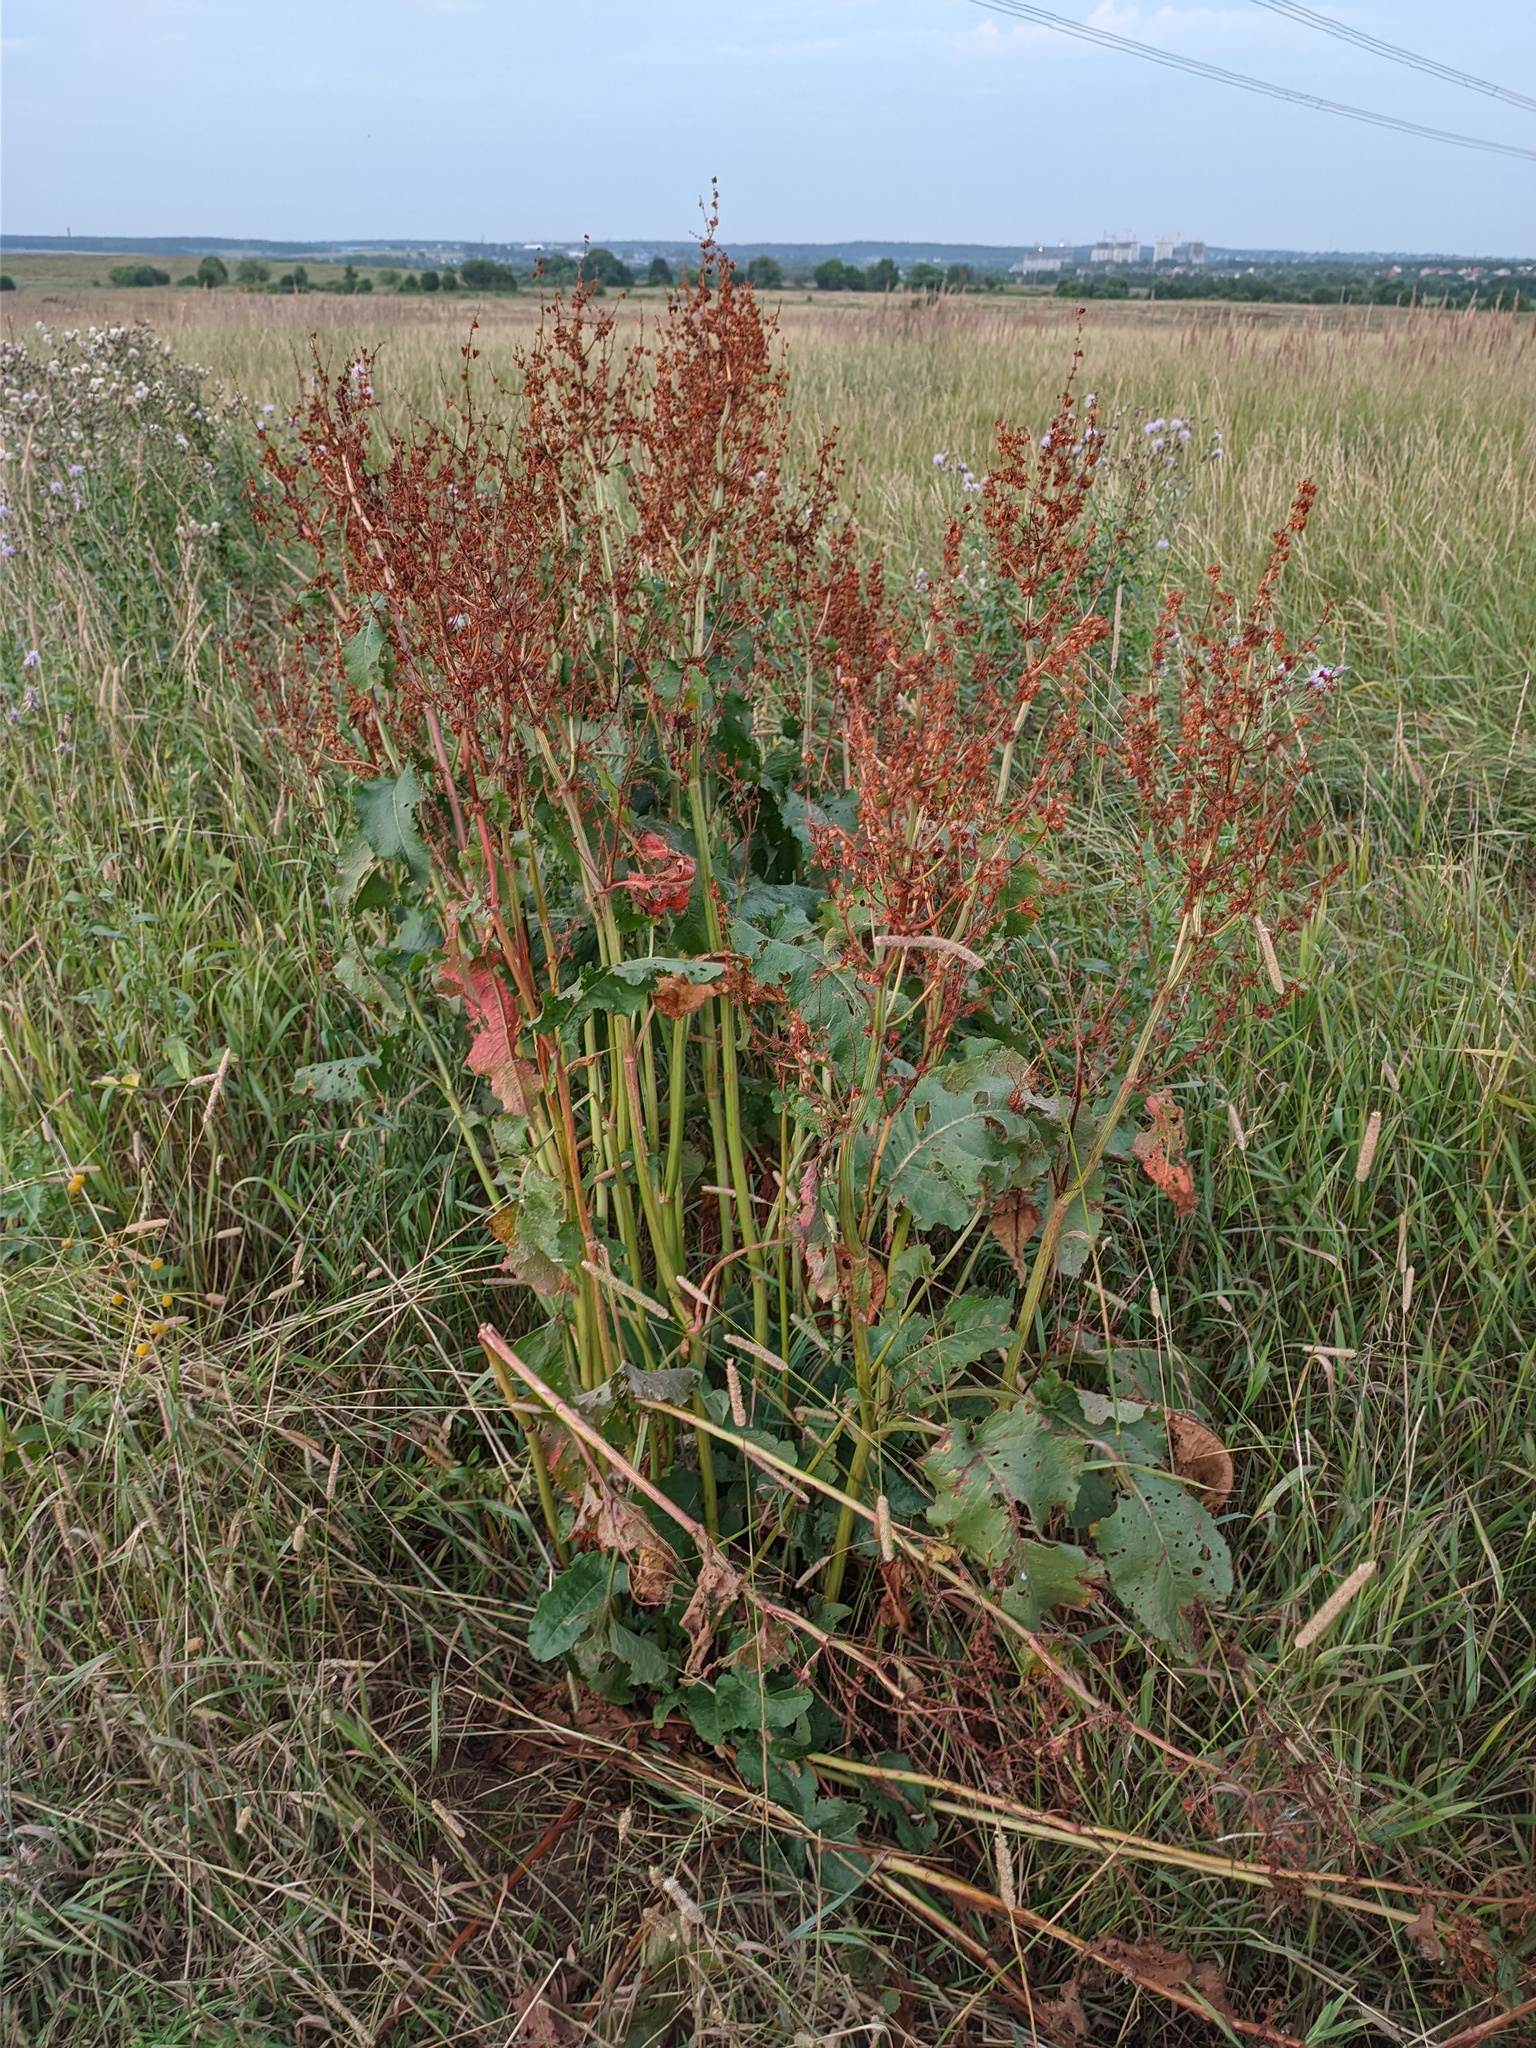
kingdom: Plantae
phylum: Tracheophyta
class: Magnoliopsida
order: Caryophyllales
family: Polygonaceae
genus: Rumex
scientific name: Rumex confertus
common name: Russian dock
